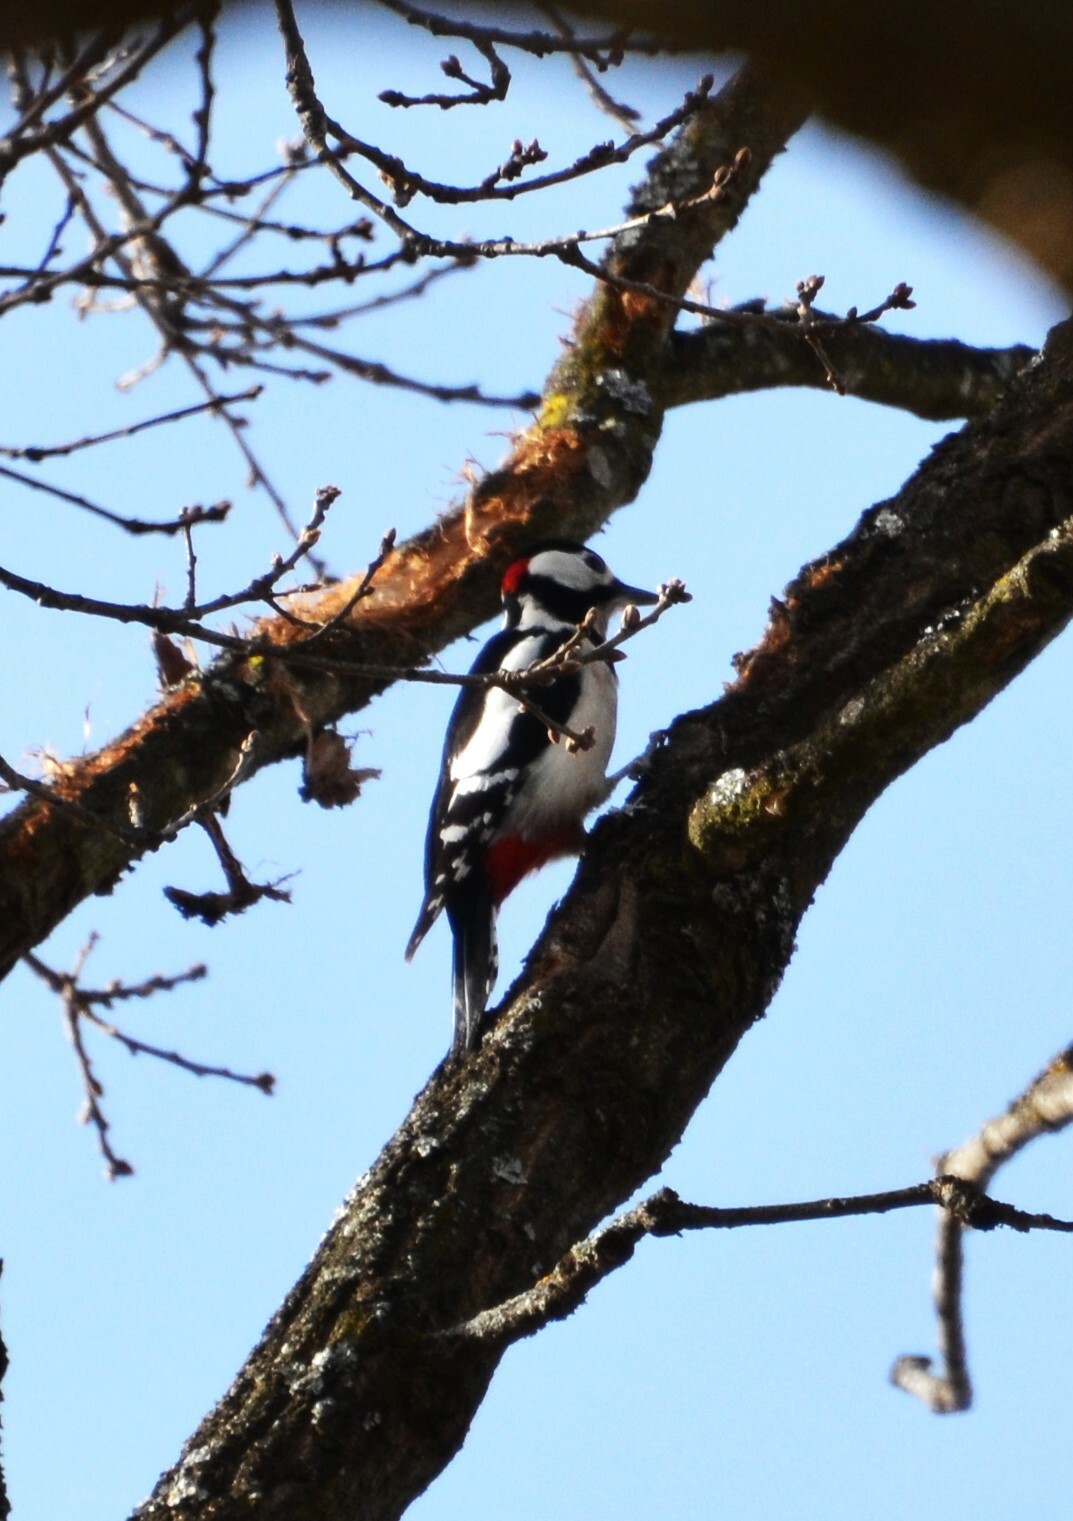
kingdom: Animalia
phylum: Chordata
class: Aves
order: Piciformes
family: Picidae
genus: Dendrocopos
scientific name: Dendrocopos major
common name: Great spotted woodpecker
